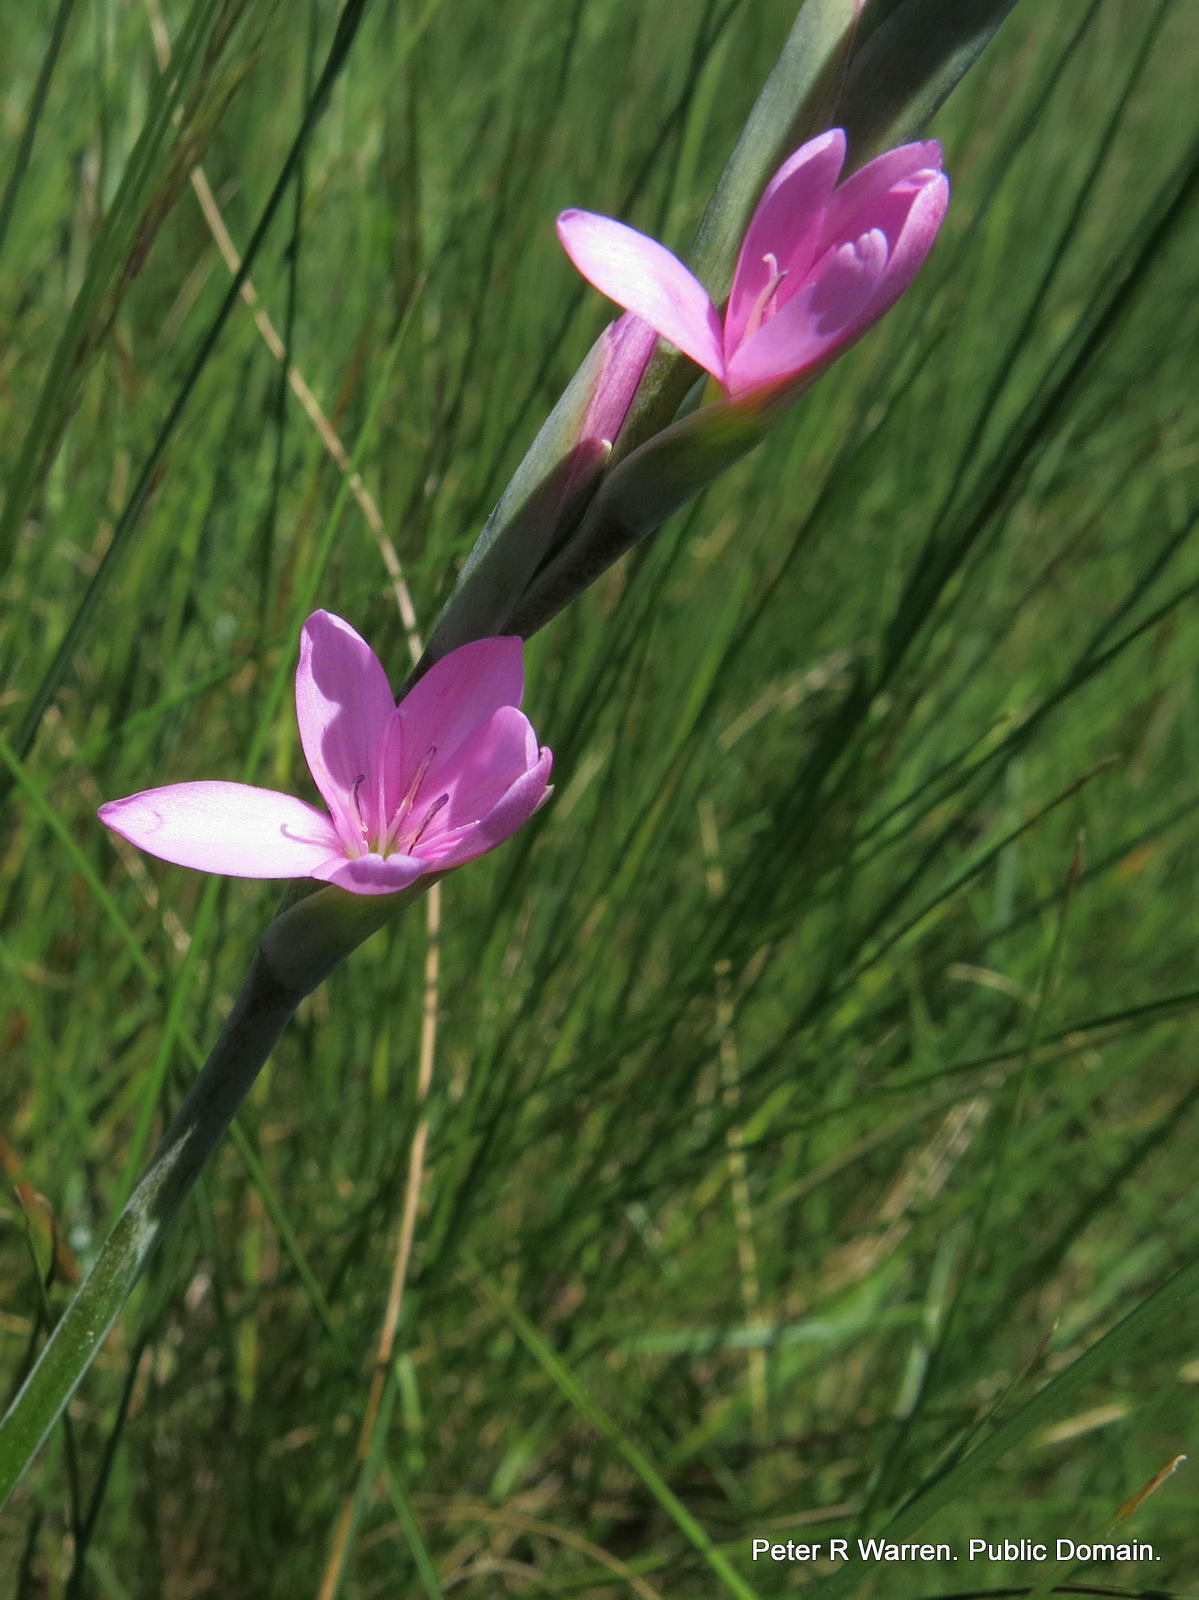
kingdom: Plantae
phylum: Tracheophyta
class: Liliopsida
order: Asparagales
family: Iridaceae
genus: Hesperantha
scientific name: Hesperantha baurii
